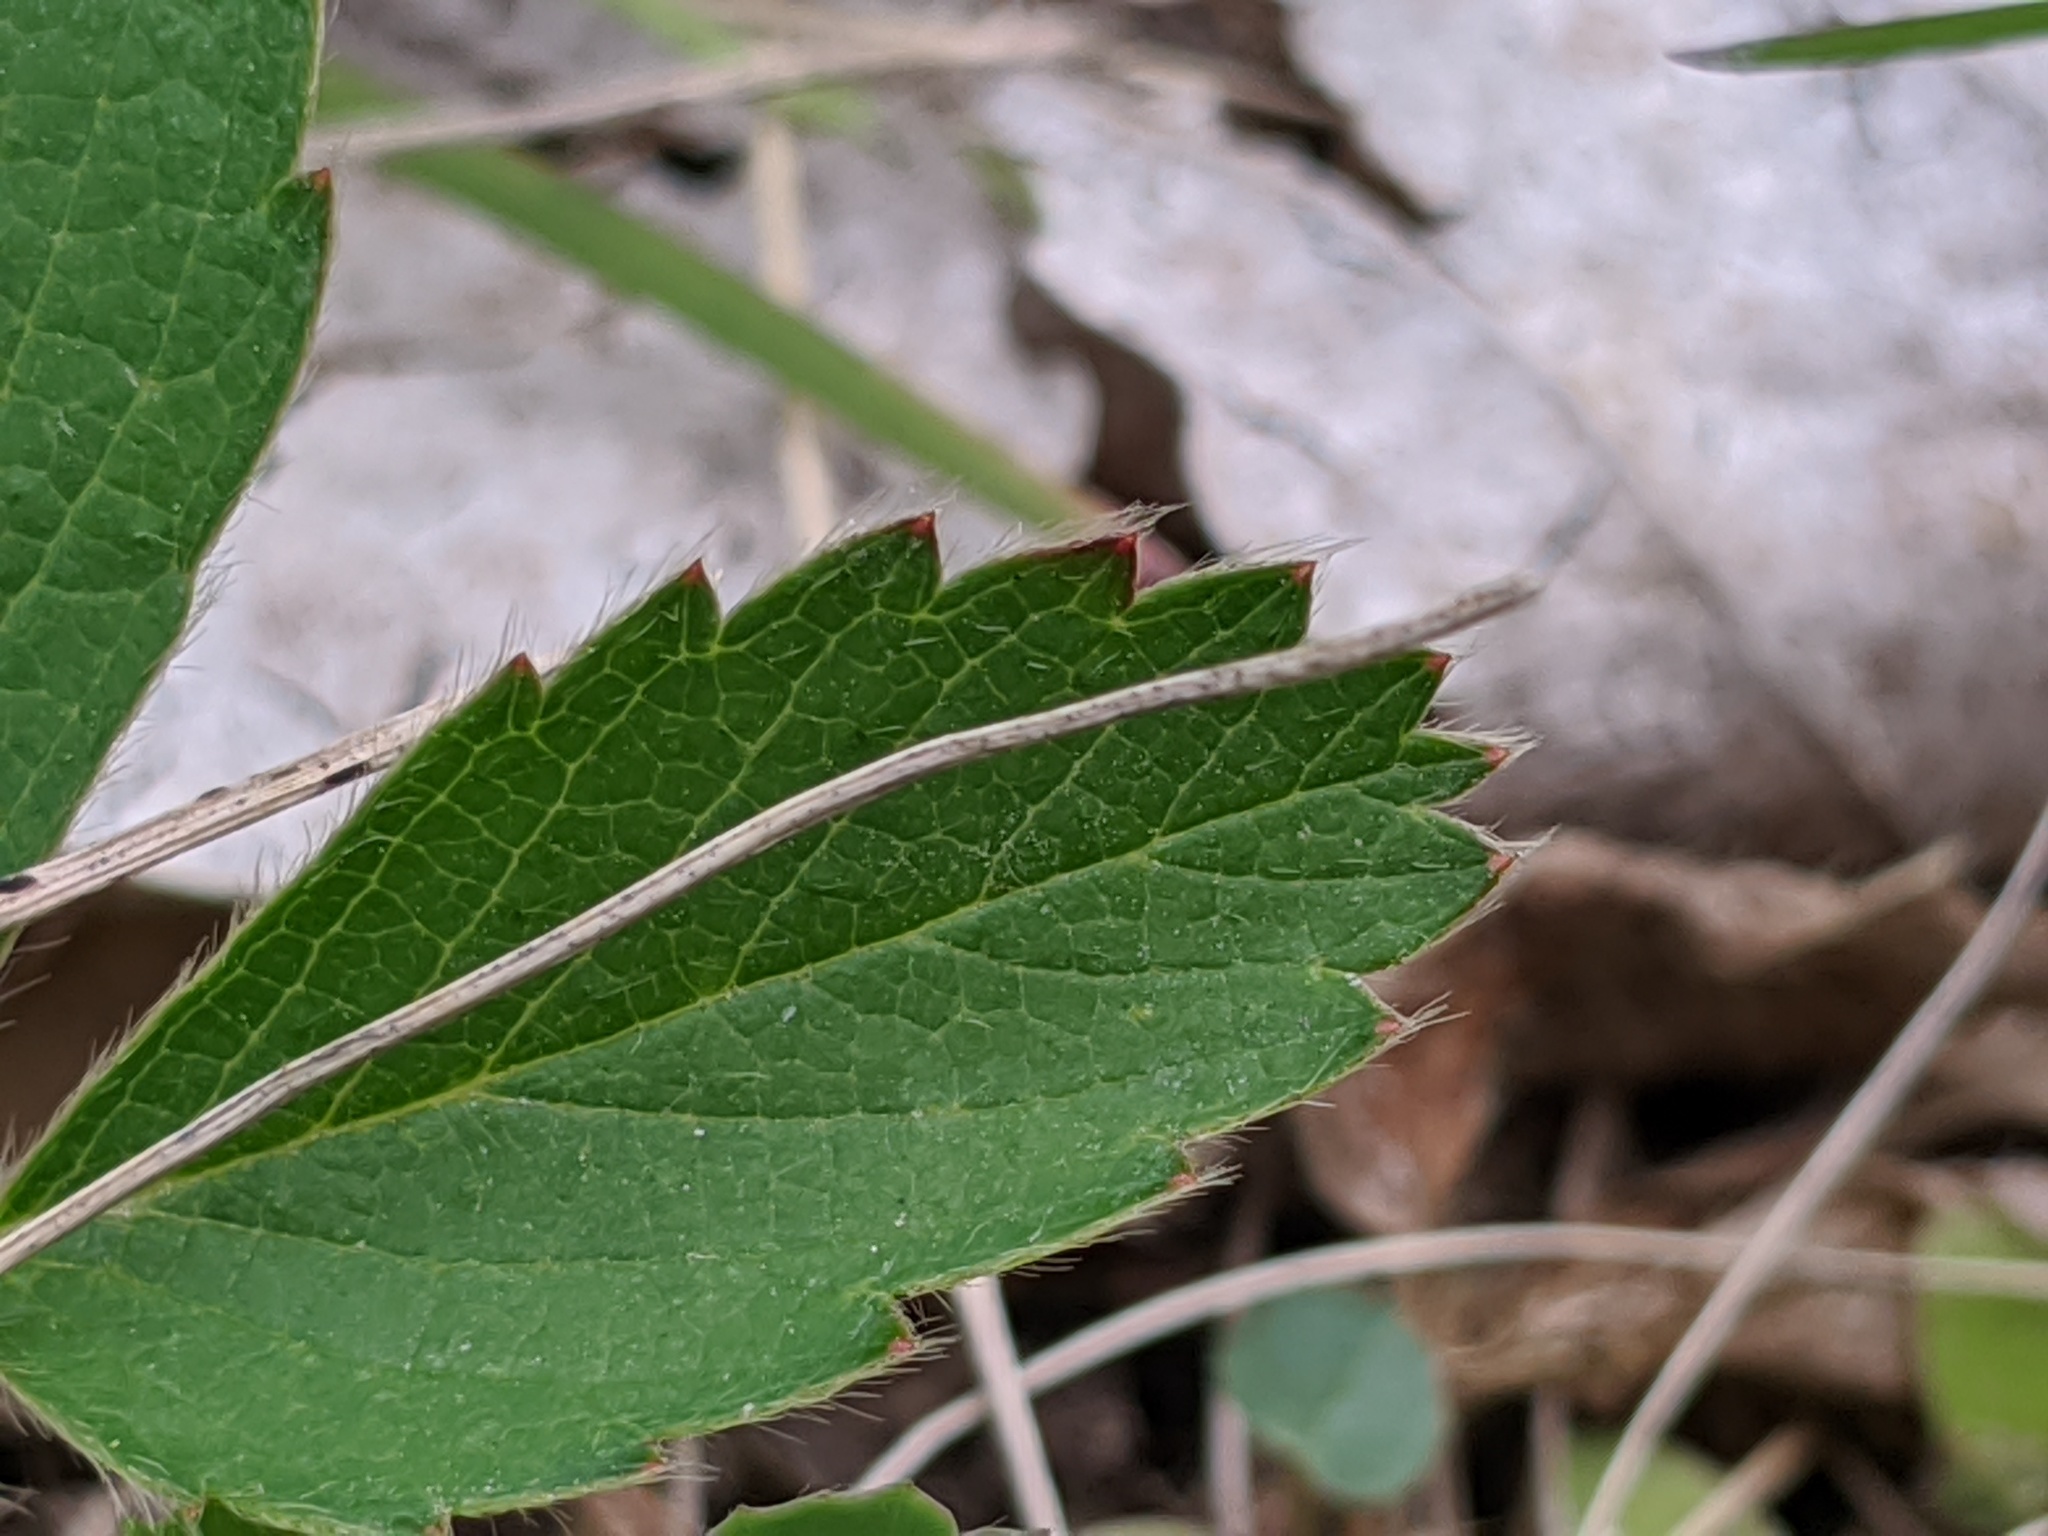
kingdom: Plantae
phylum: Tracheophyta
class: Magnoliopsida
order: Rosales
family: Rosaceae
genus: Fragaria
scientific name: Fragaria vesca
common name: Wild strawberry
